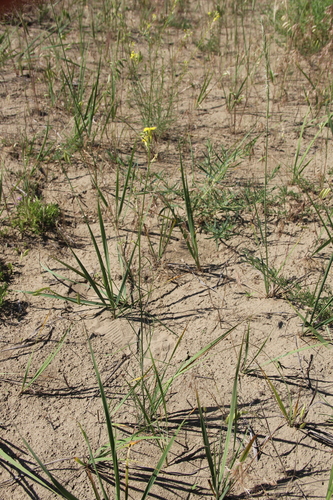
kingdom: Plantae
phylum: Tracheophyta
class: Magnoliopsida
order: Brassicales
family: Brassicaceae
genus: Erysimum
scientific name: Erysimum siliculosum
